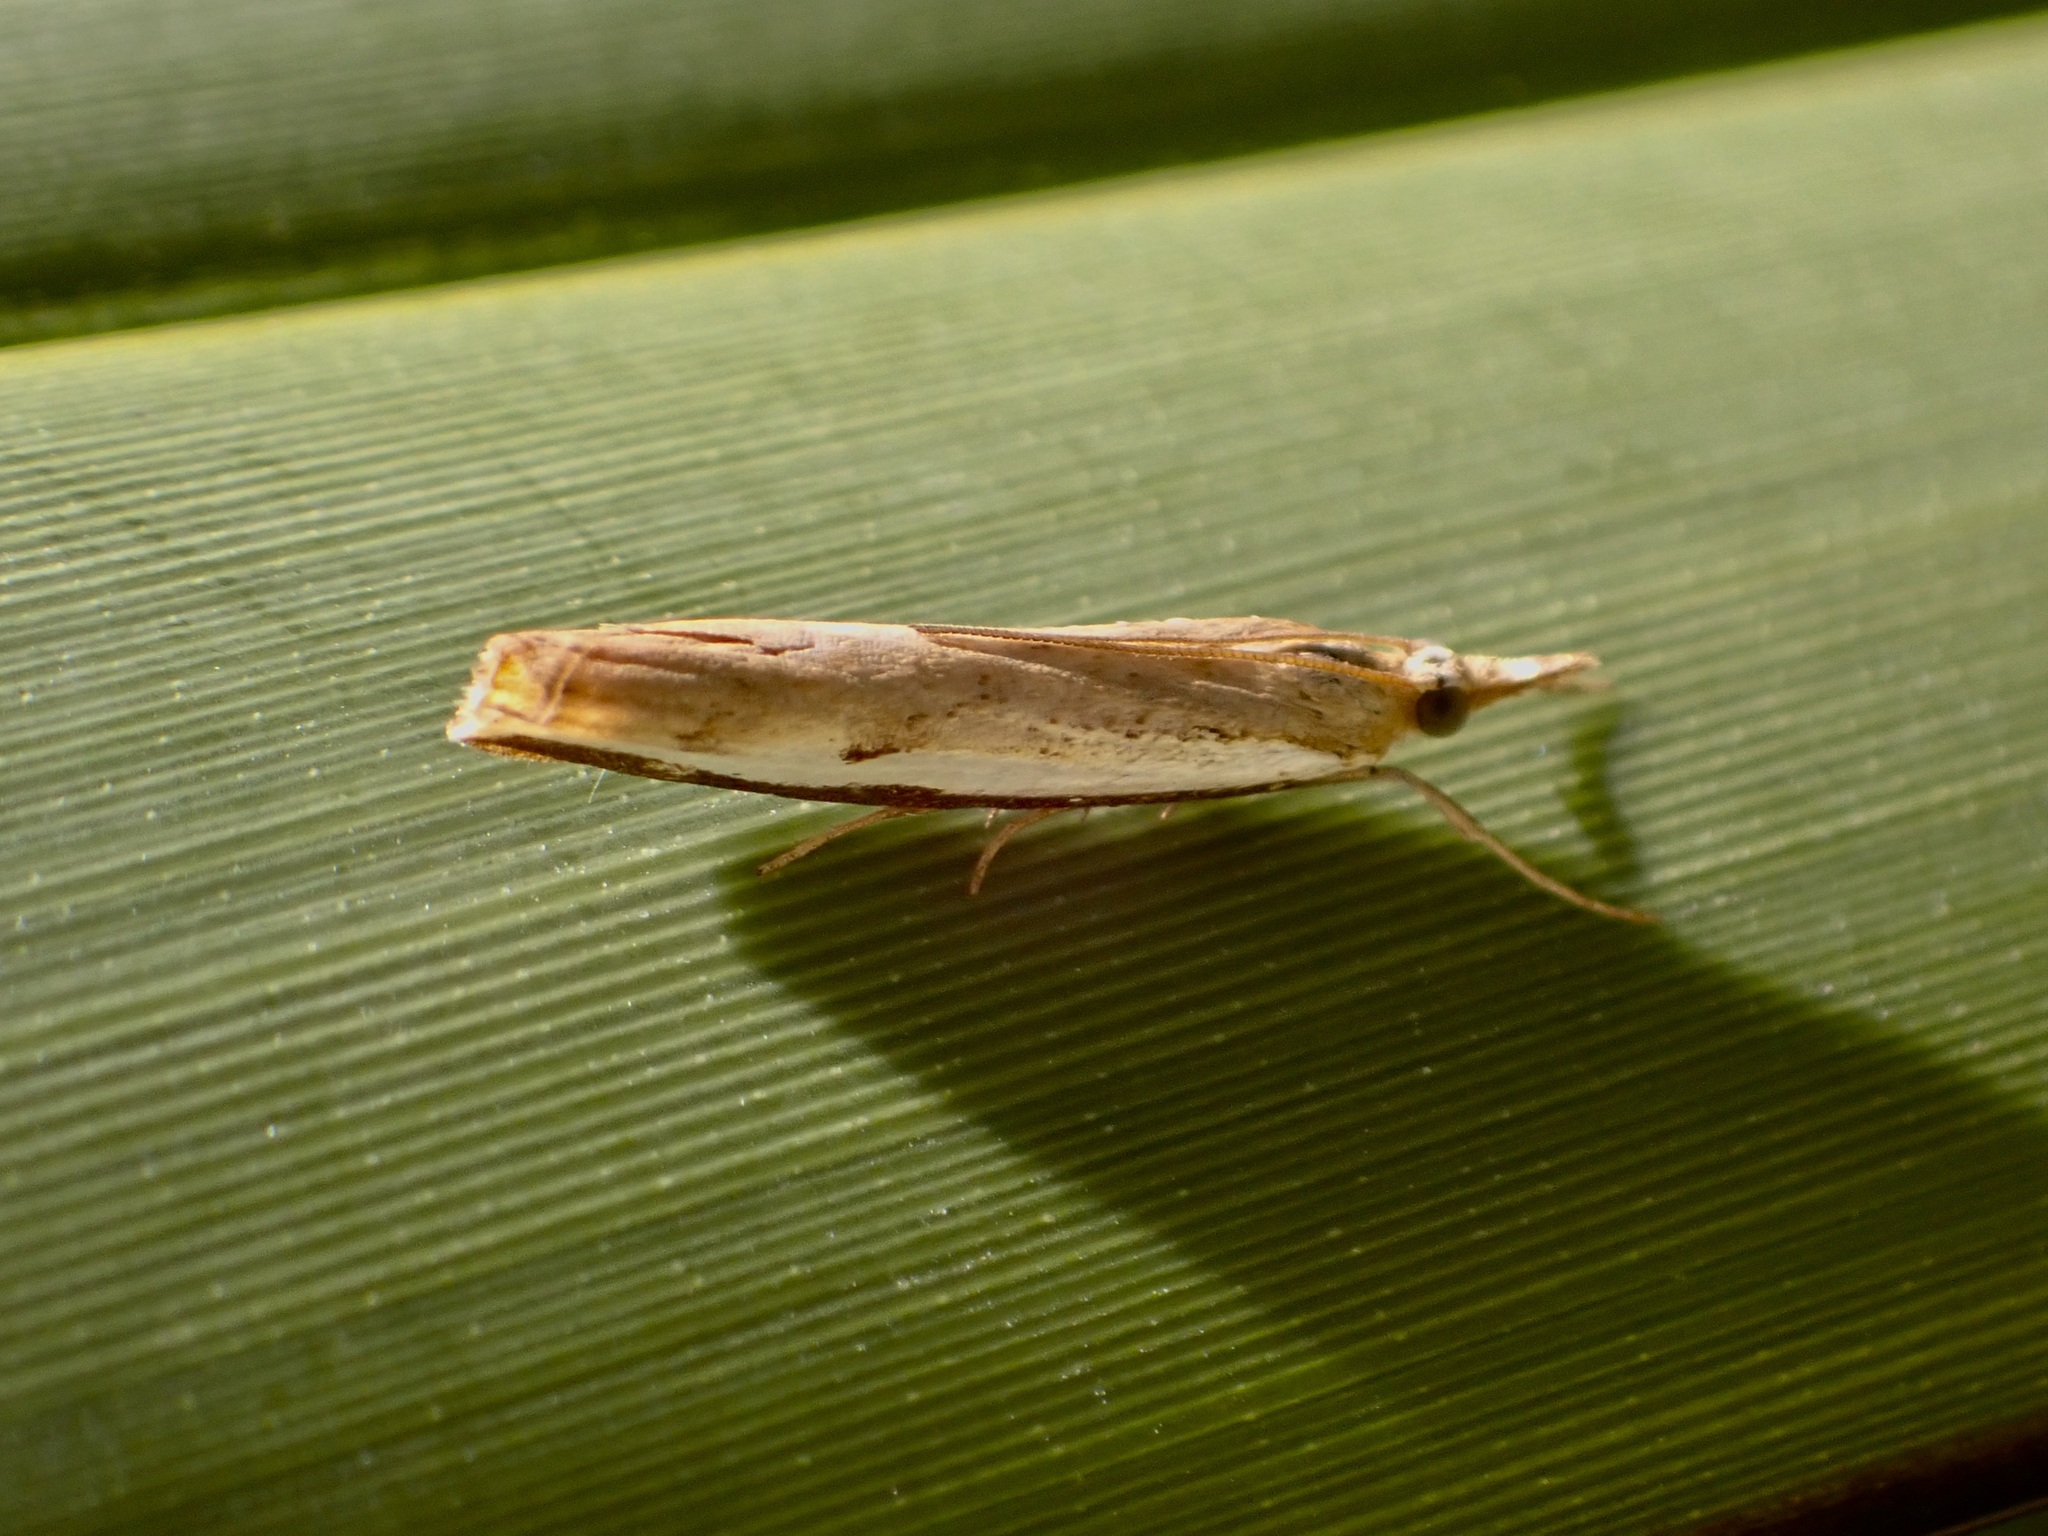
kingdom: Animalia
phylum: Arthropoda
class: Insecta
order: Lepidoptera
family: Crambidae
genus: Orocrambus
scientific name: Orocrambus flexuosellus
